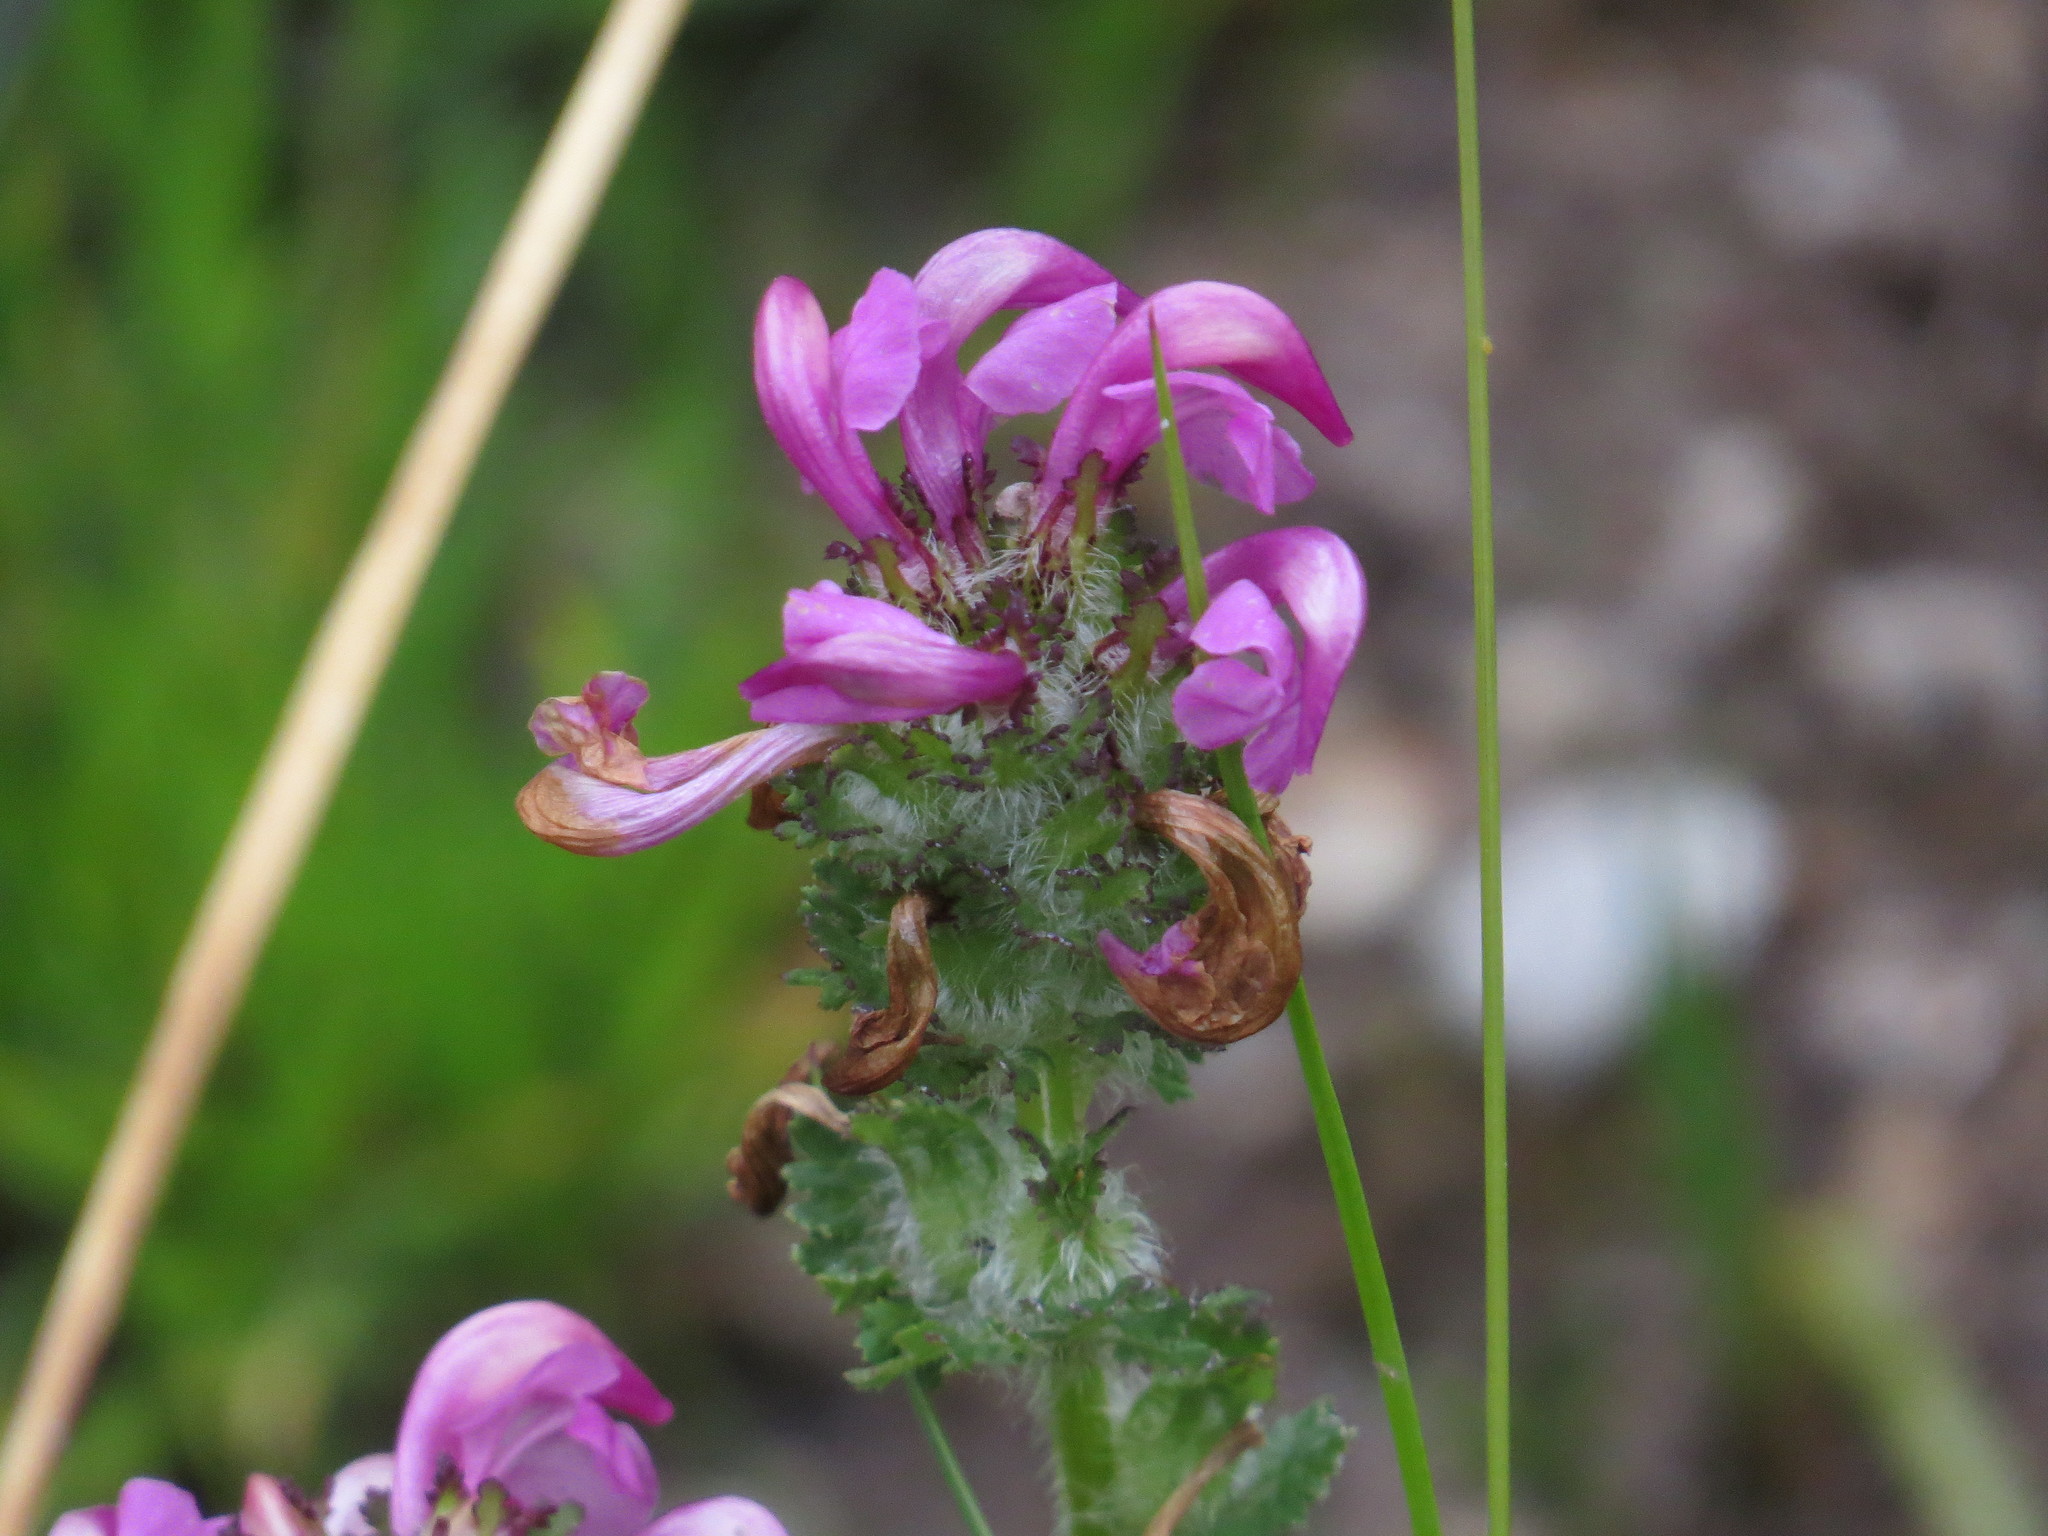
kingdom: Plantae
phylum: Tracheophyta
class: Magnoliopsida
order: Lamiales
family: Orobanchaceae
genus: Pedicularis
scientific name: Pedicularis pyrenaica
